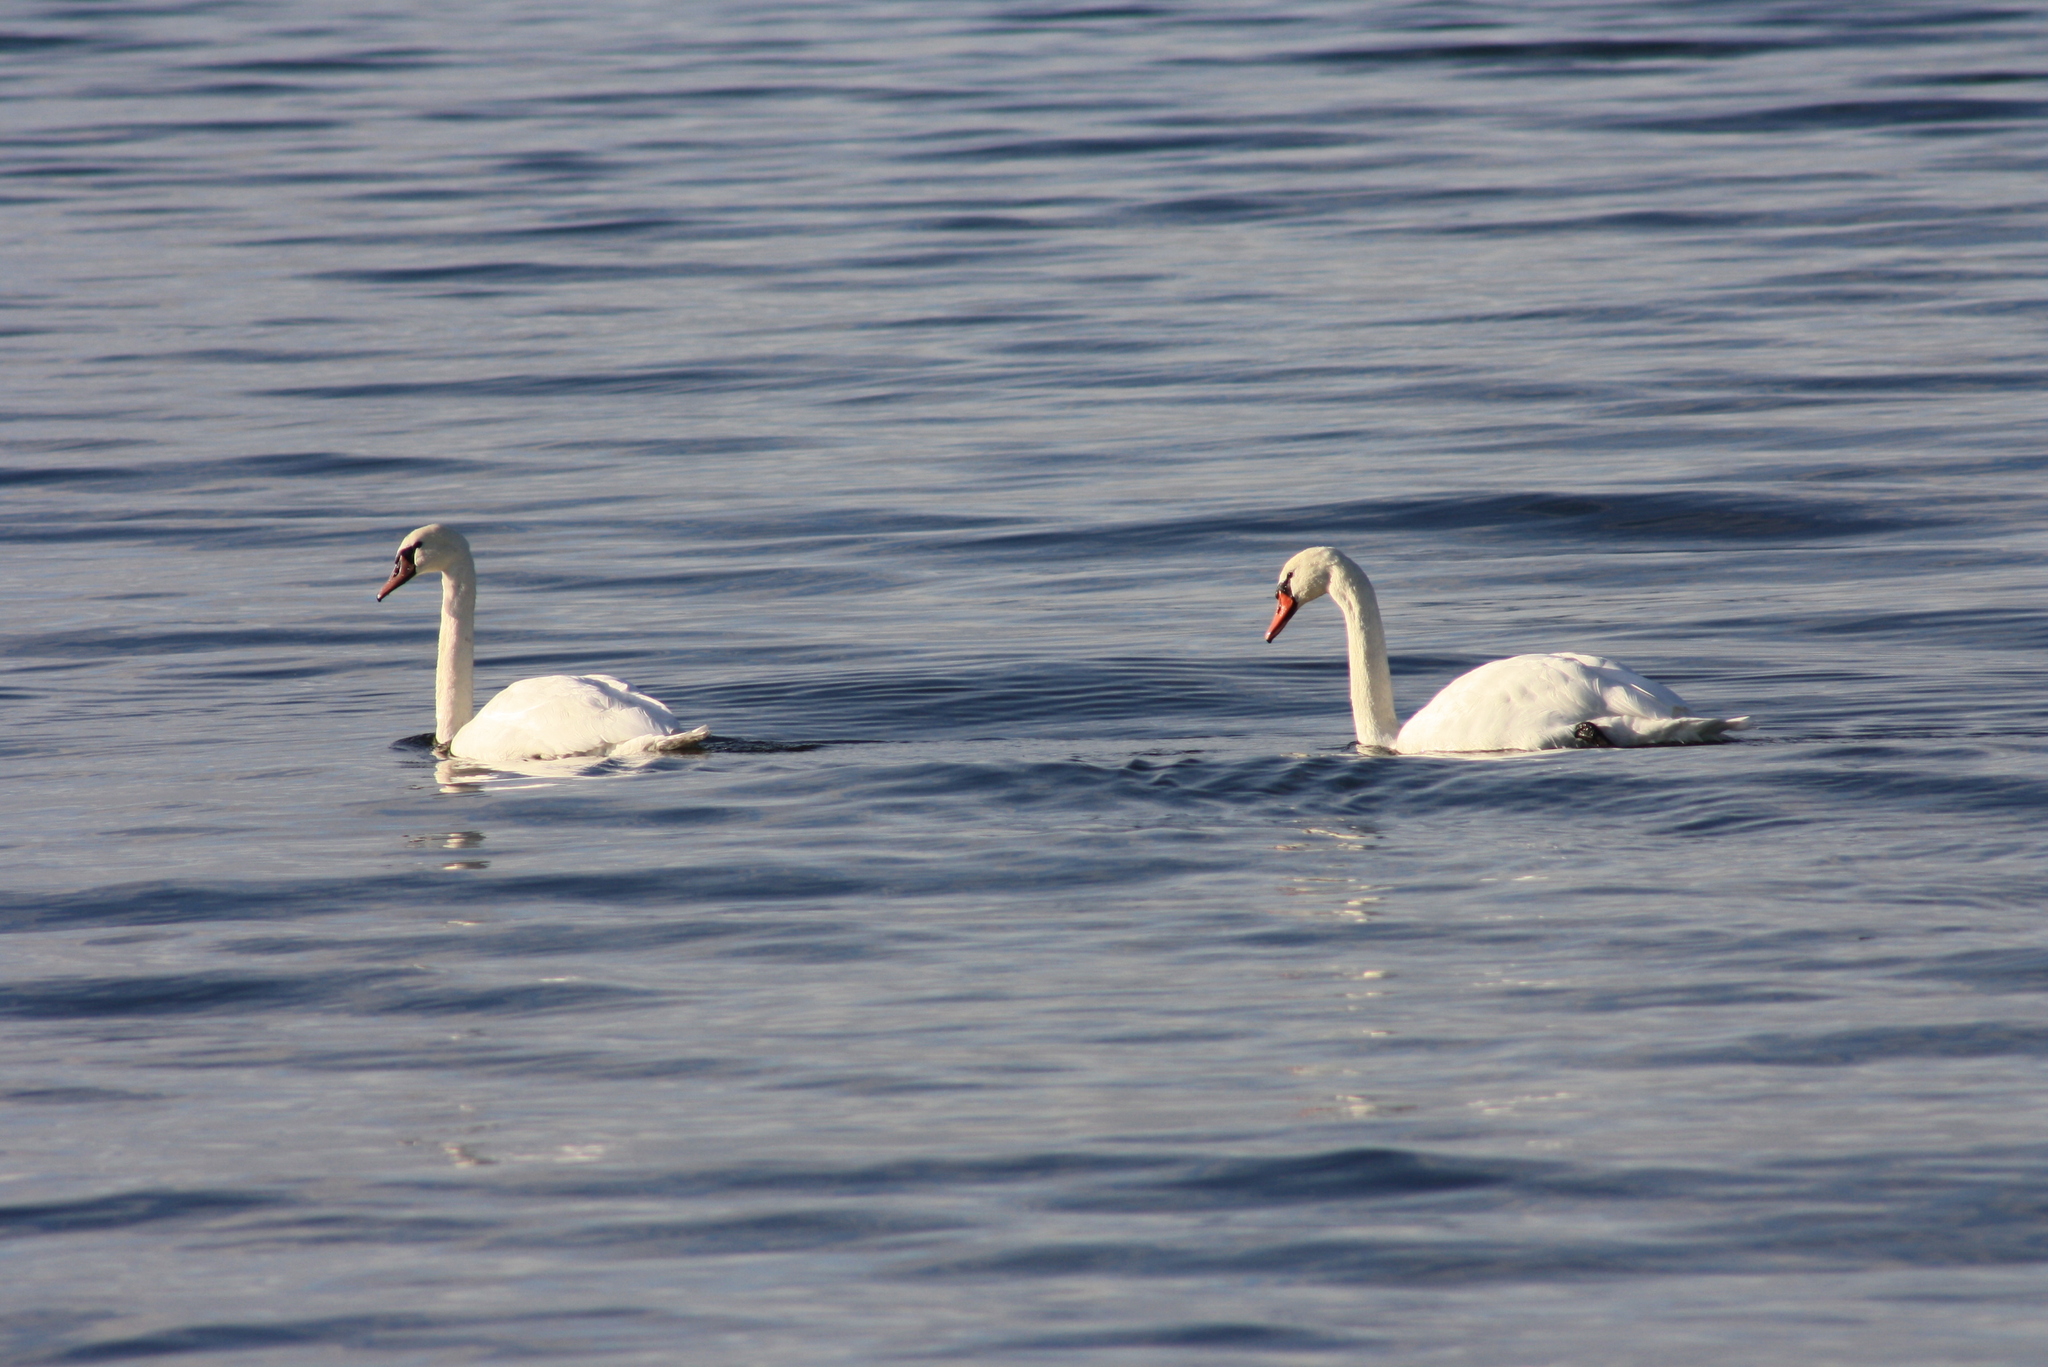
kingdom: Animalia
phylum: Chordata
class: Aves
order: Anseriformes
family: Anatidae
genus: Cygnus
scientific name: Cygnus olor
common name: Mute swan
